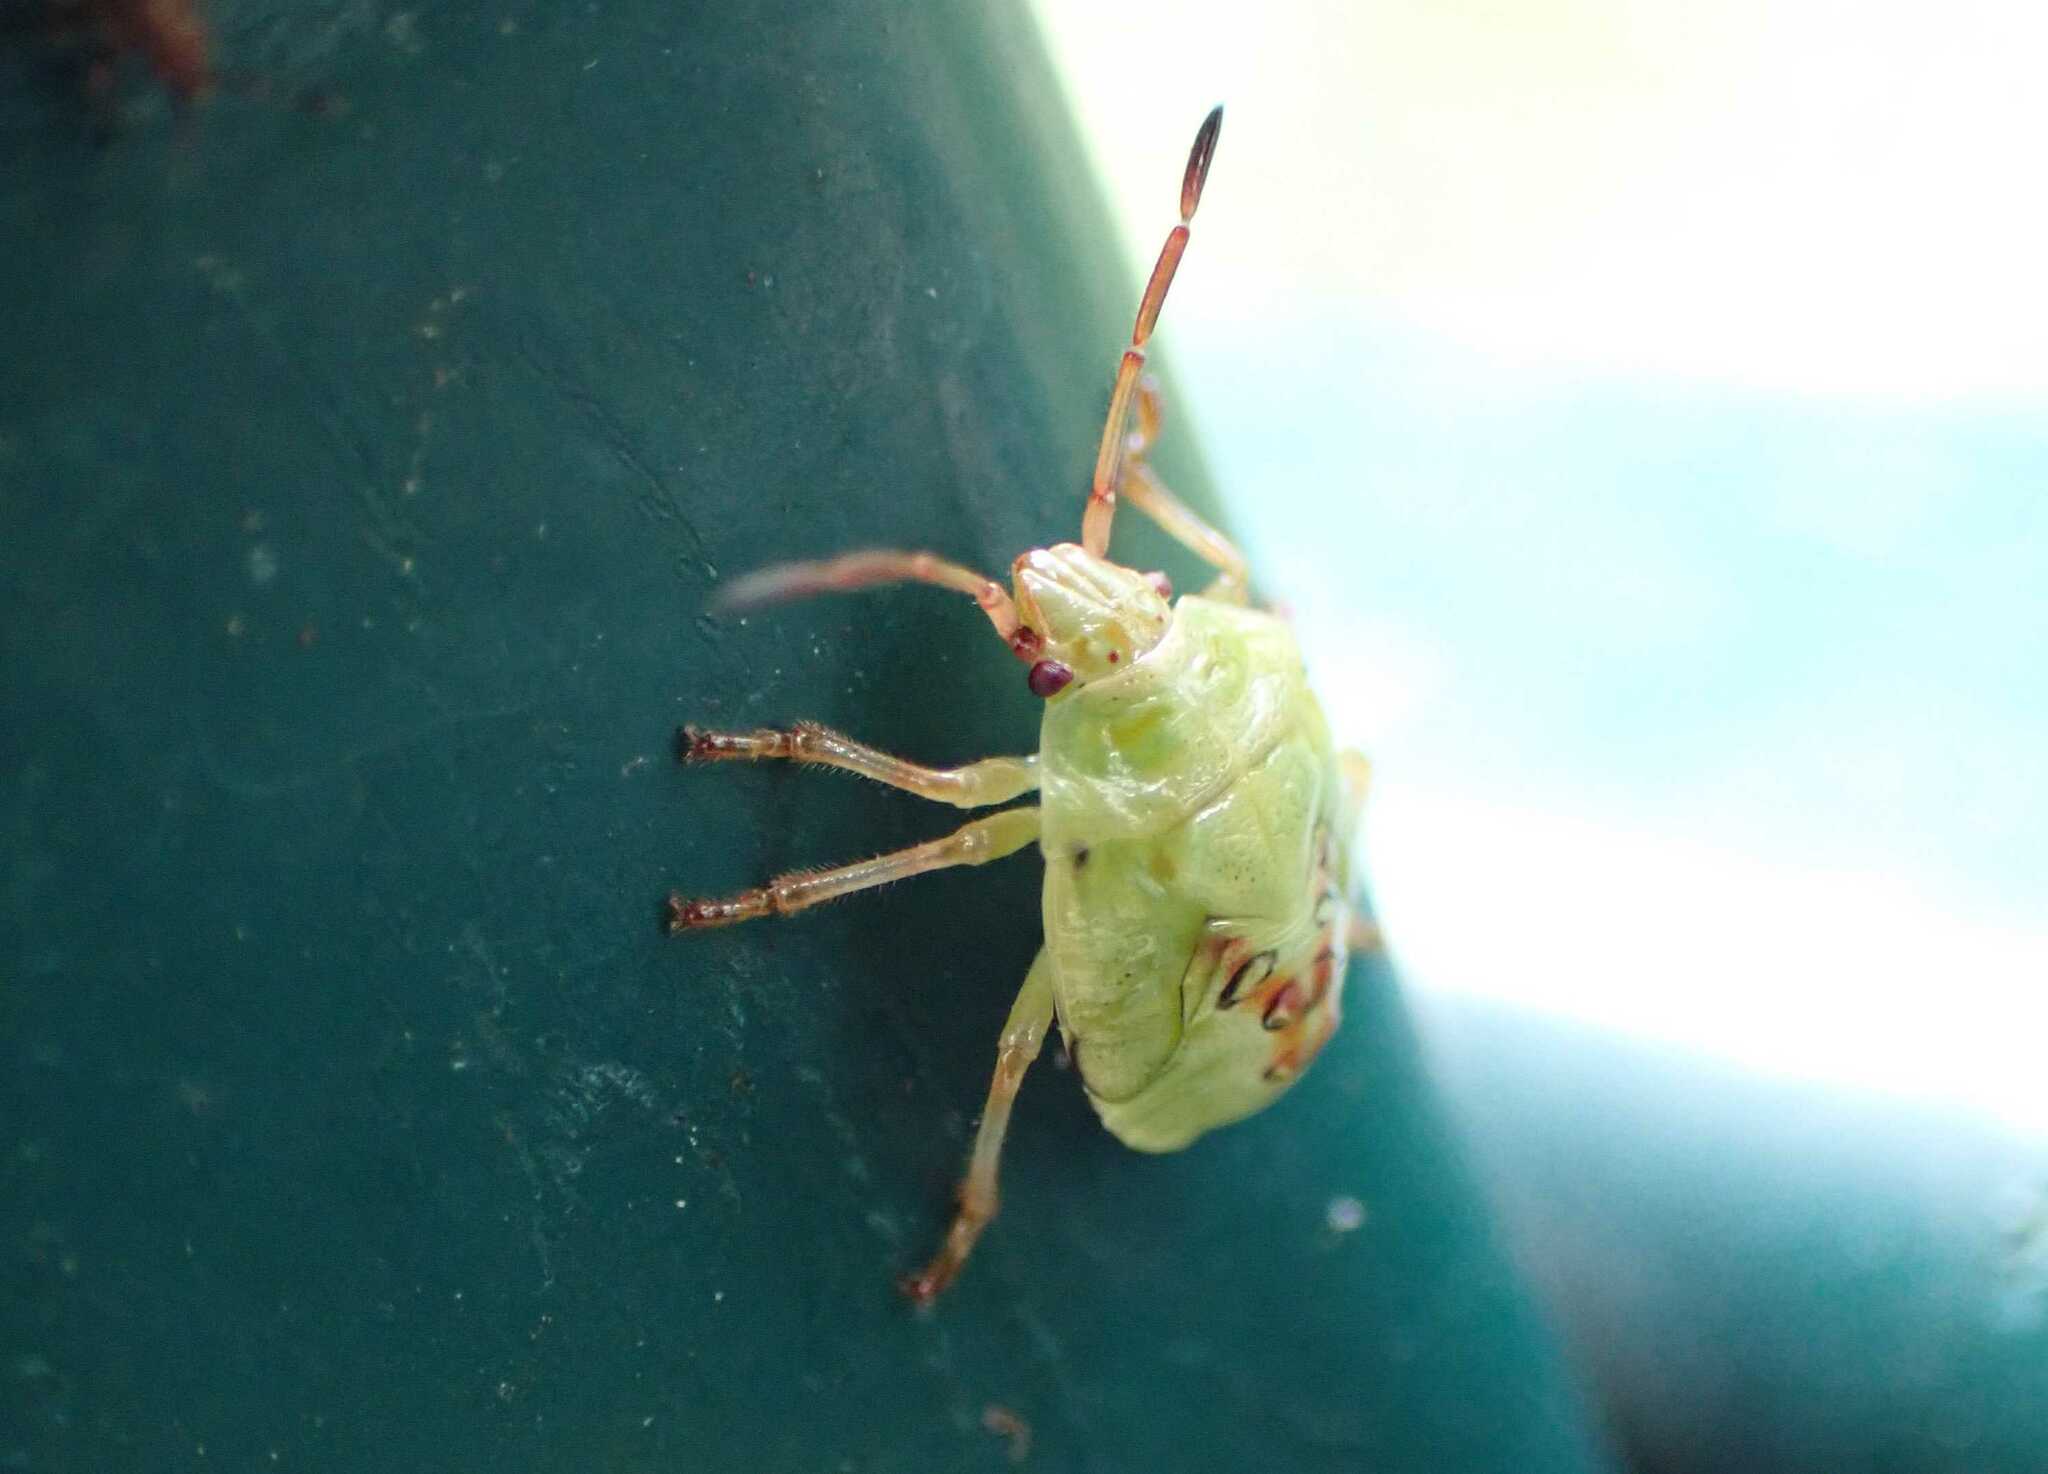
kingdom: Animalia
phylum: Arthropoda
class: Insecta
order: Hemiptera
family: Acanthosomatidae
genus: Elasmostethus
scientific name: Elasmostethus
